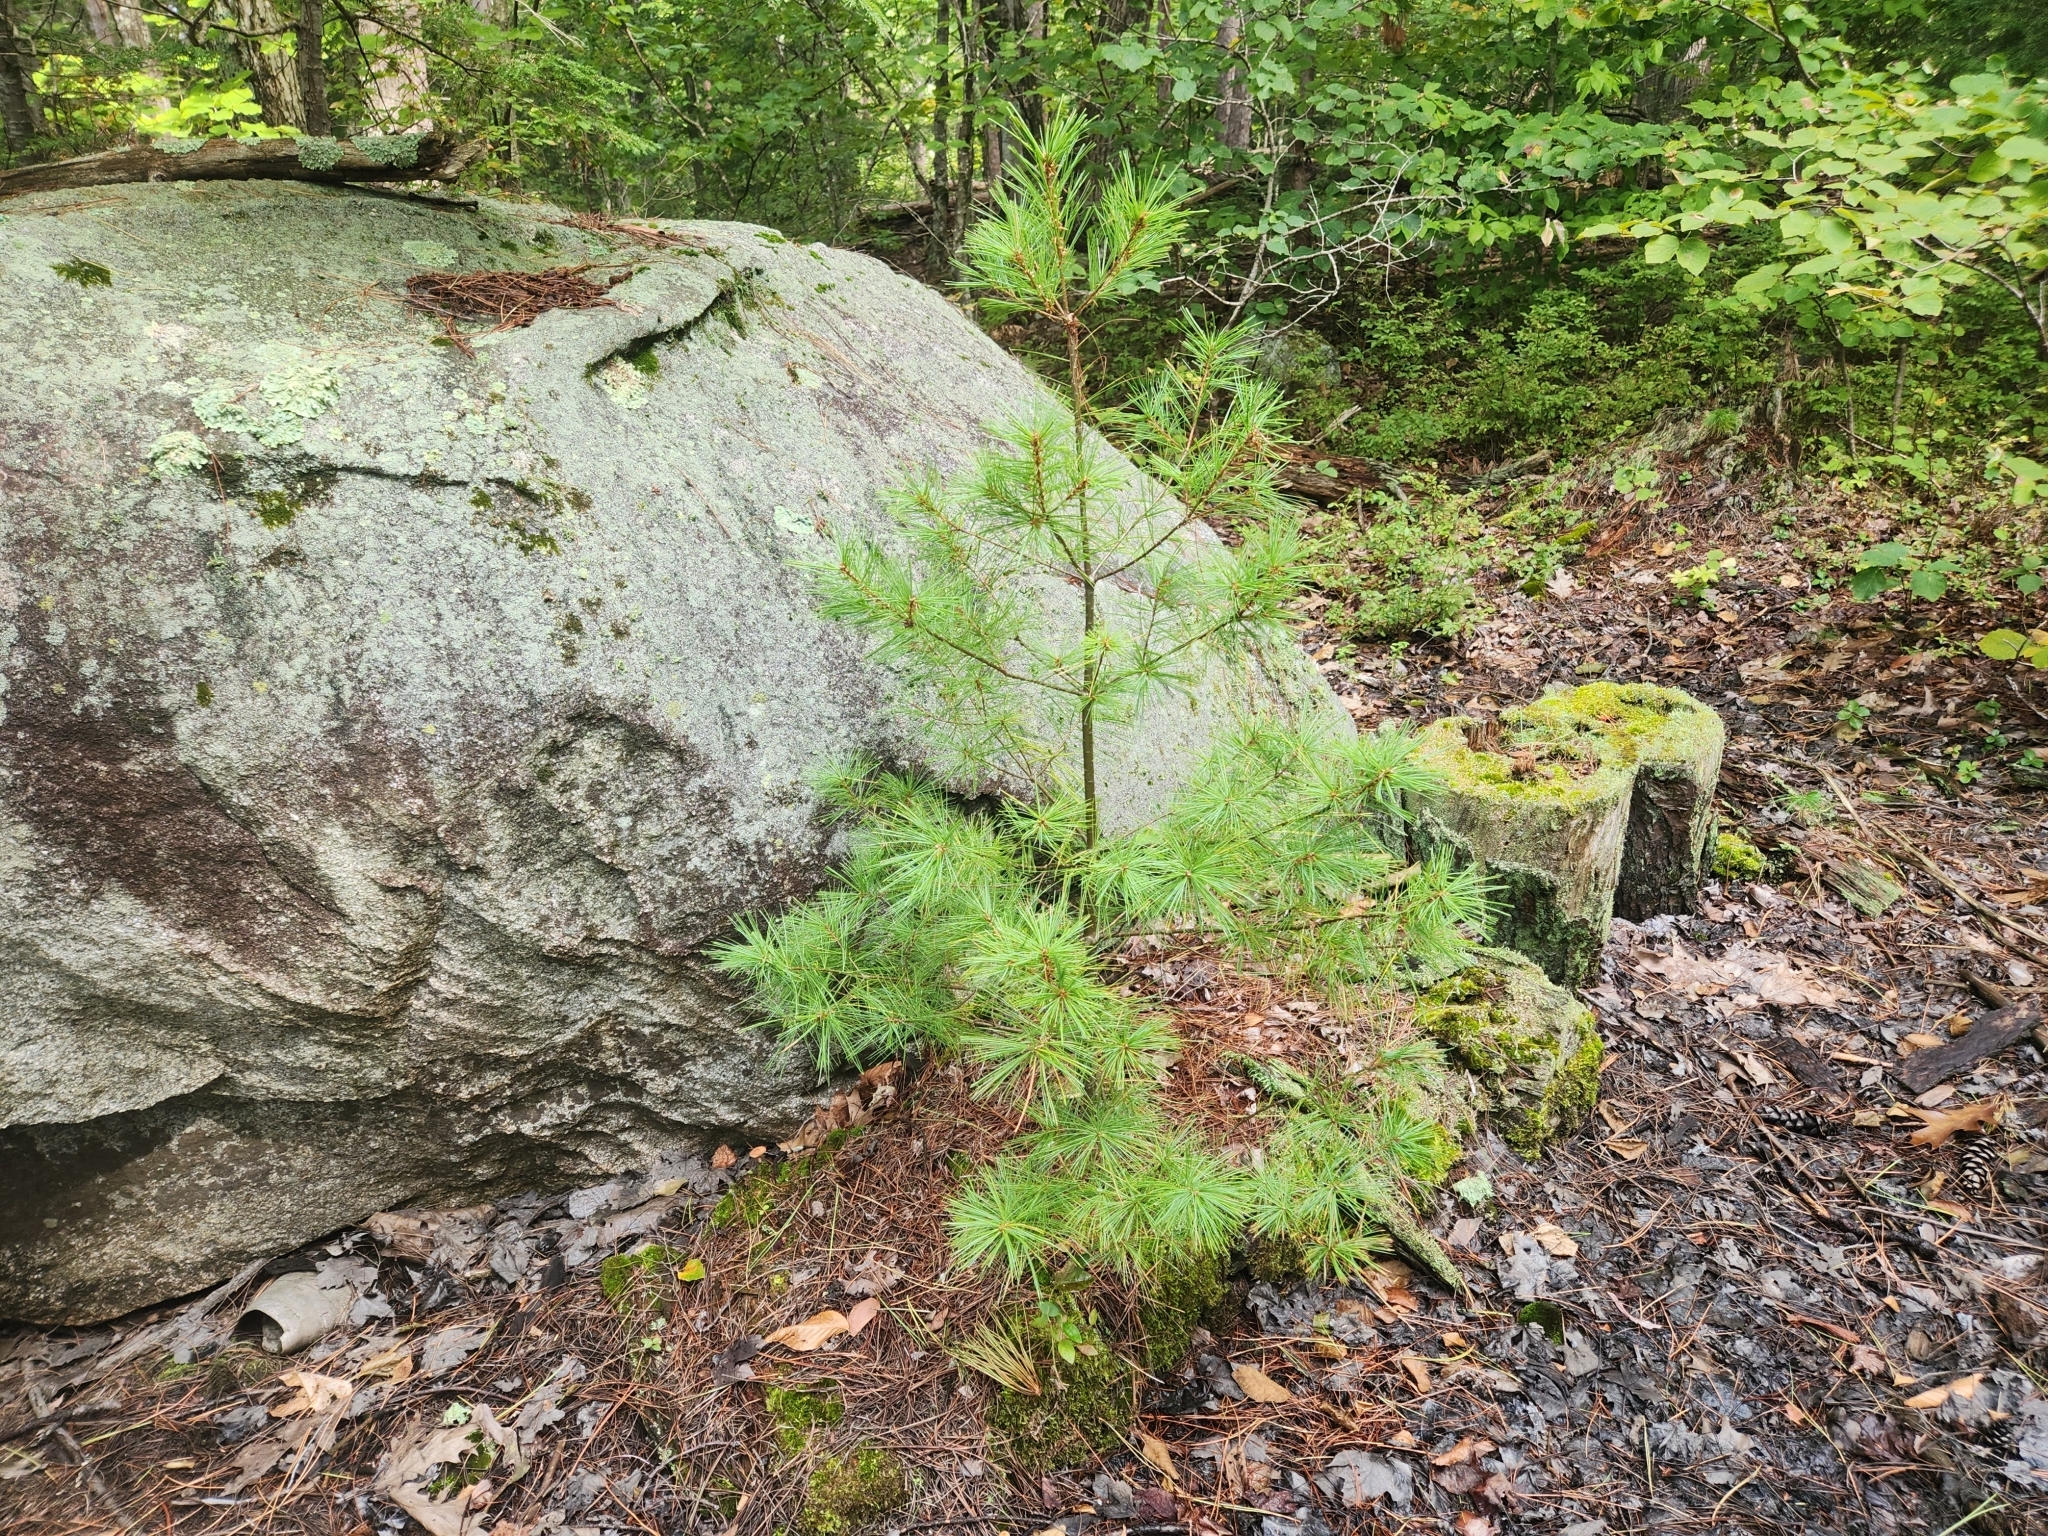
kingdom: Plantae
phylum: Tracheophyta
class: Pinopsida
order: Pinales
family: Pinaceae
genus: Pinus
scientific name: Pinus strobus
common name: Weymouth pine
